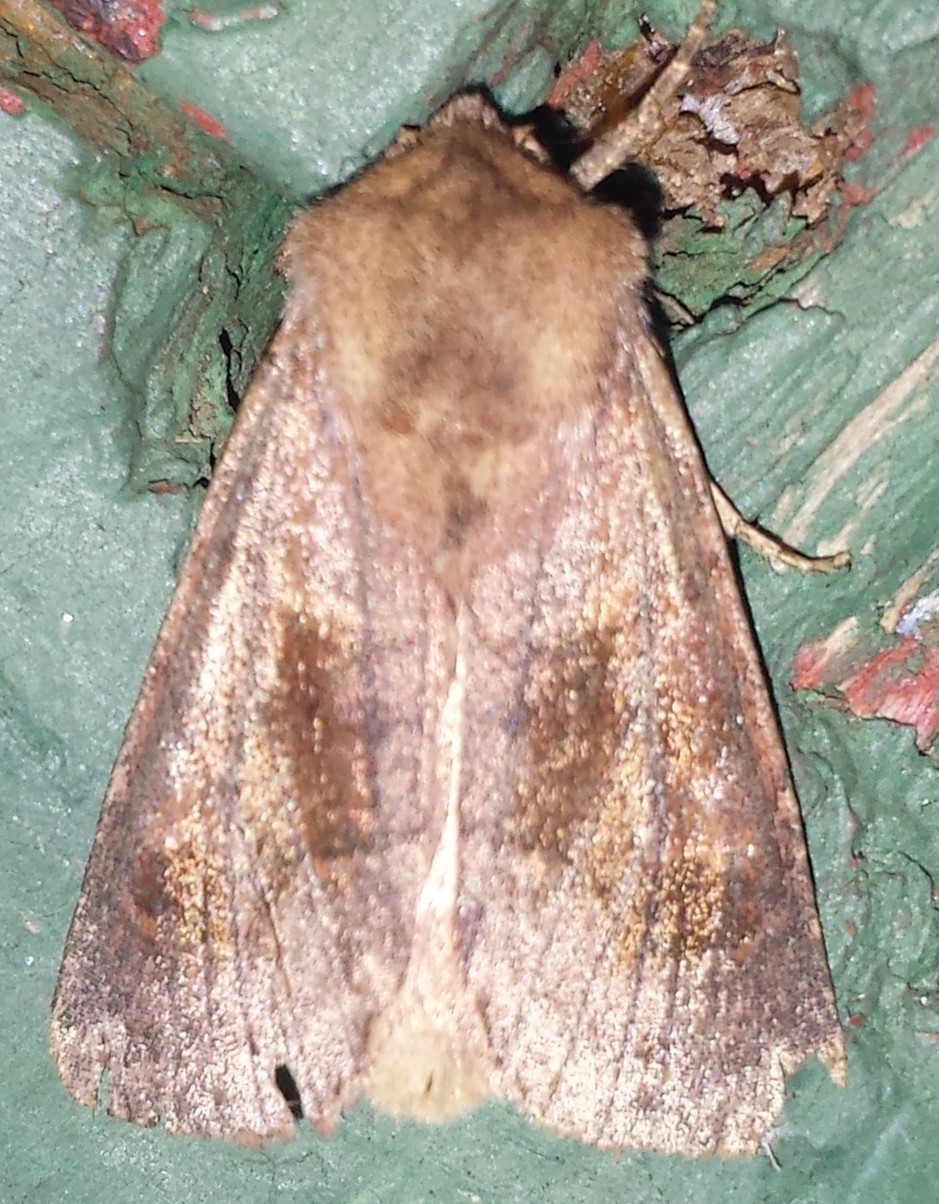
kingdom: Animalia
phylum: Arthropoda
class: Insecta
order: Lepidoptera
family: Noctuidae
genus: Nephelodes
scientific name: Nephelodes minians
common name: Bronzed cutworm
